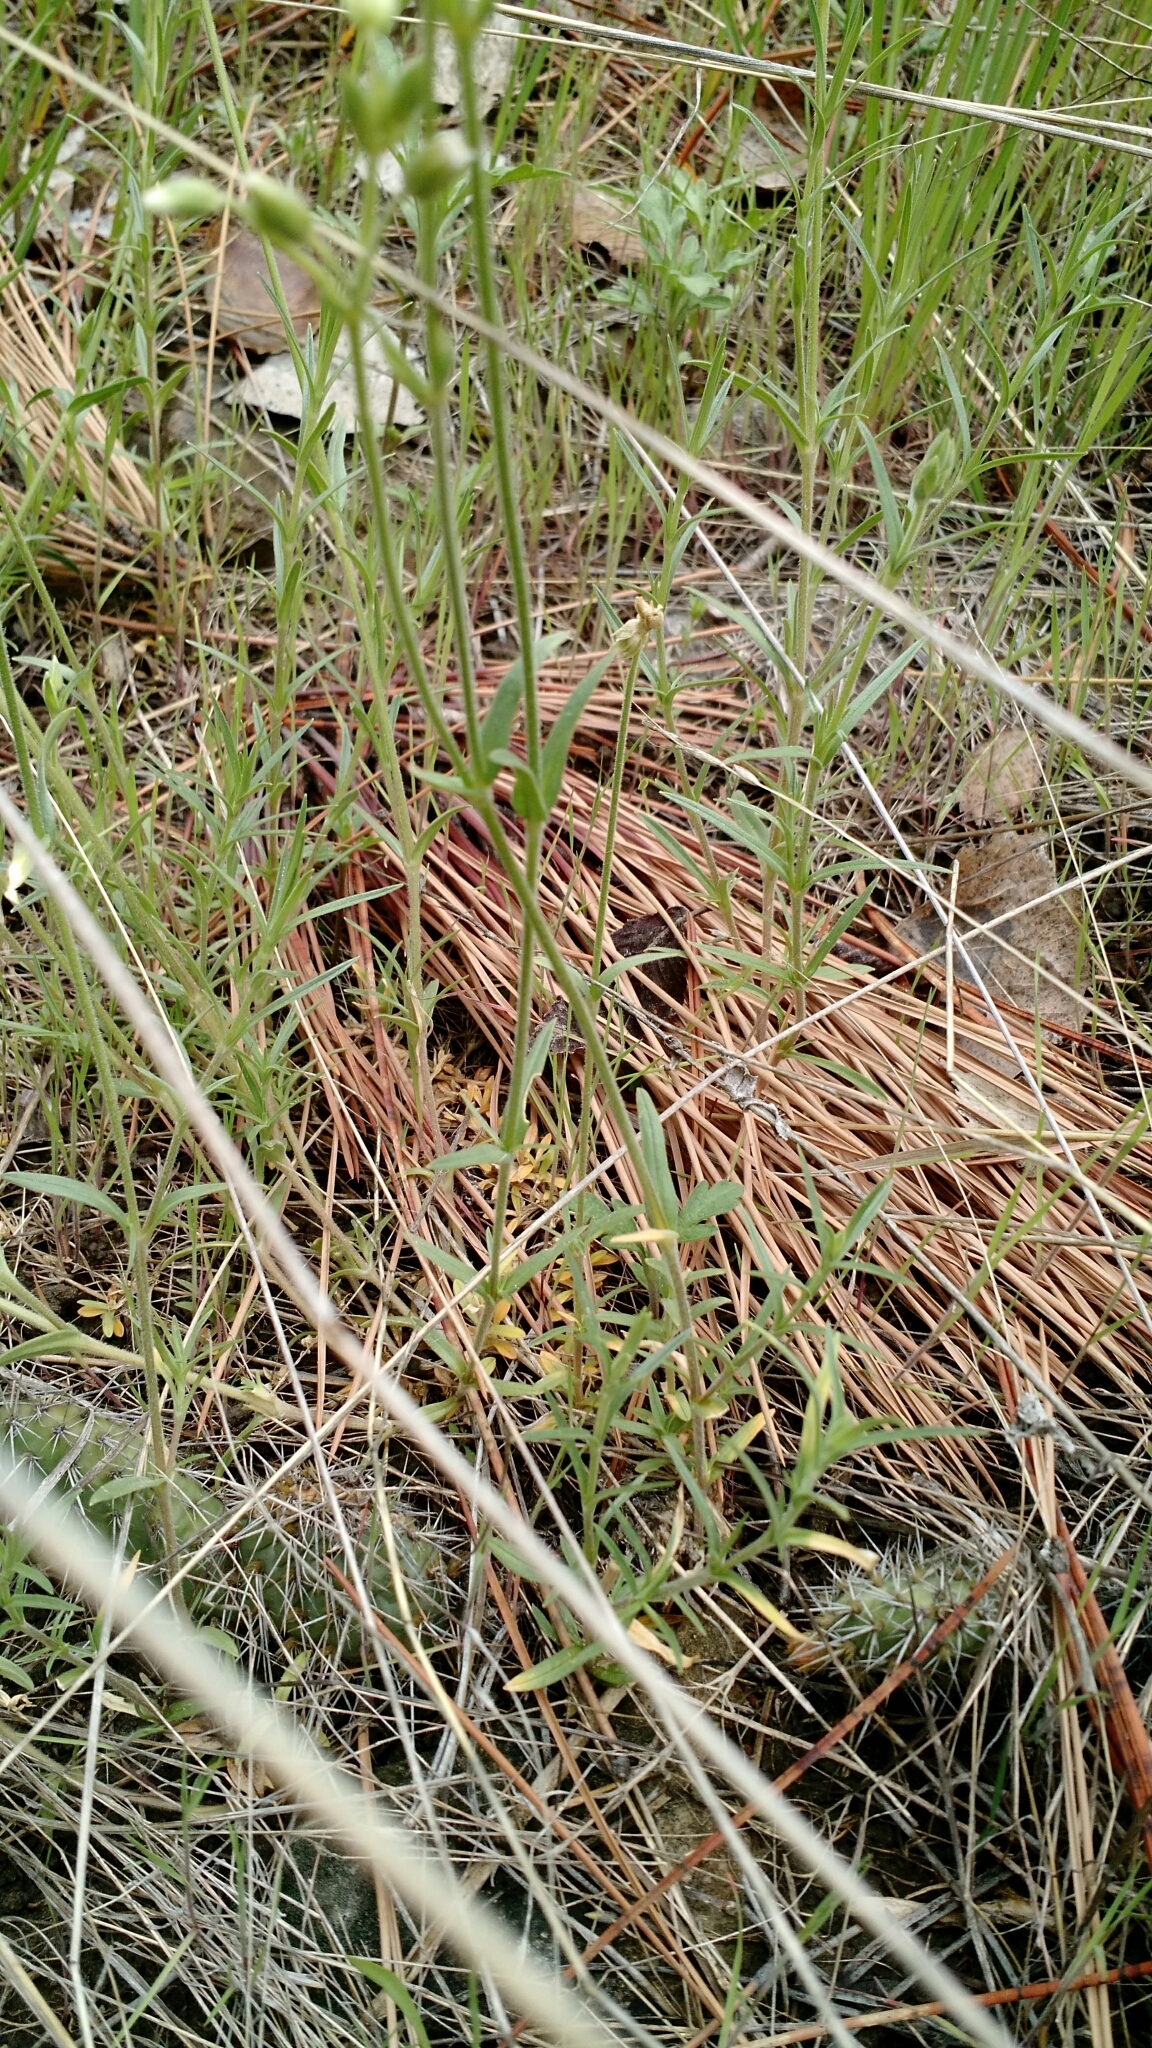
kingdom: Plantae
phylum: Tracheophyta
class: Magnoliopsida
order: Caryophyllales
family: Caryophyllaceae
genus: Cerastium
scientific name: Cerastium arvense
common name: Field mouse-ear
